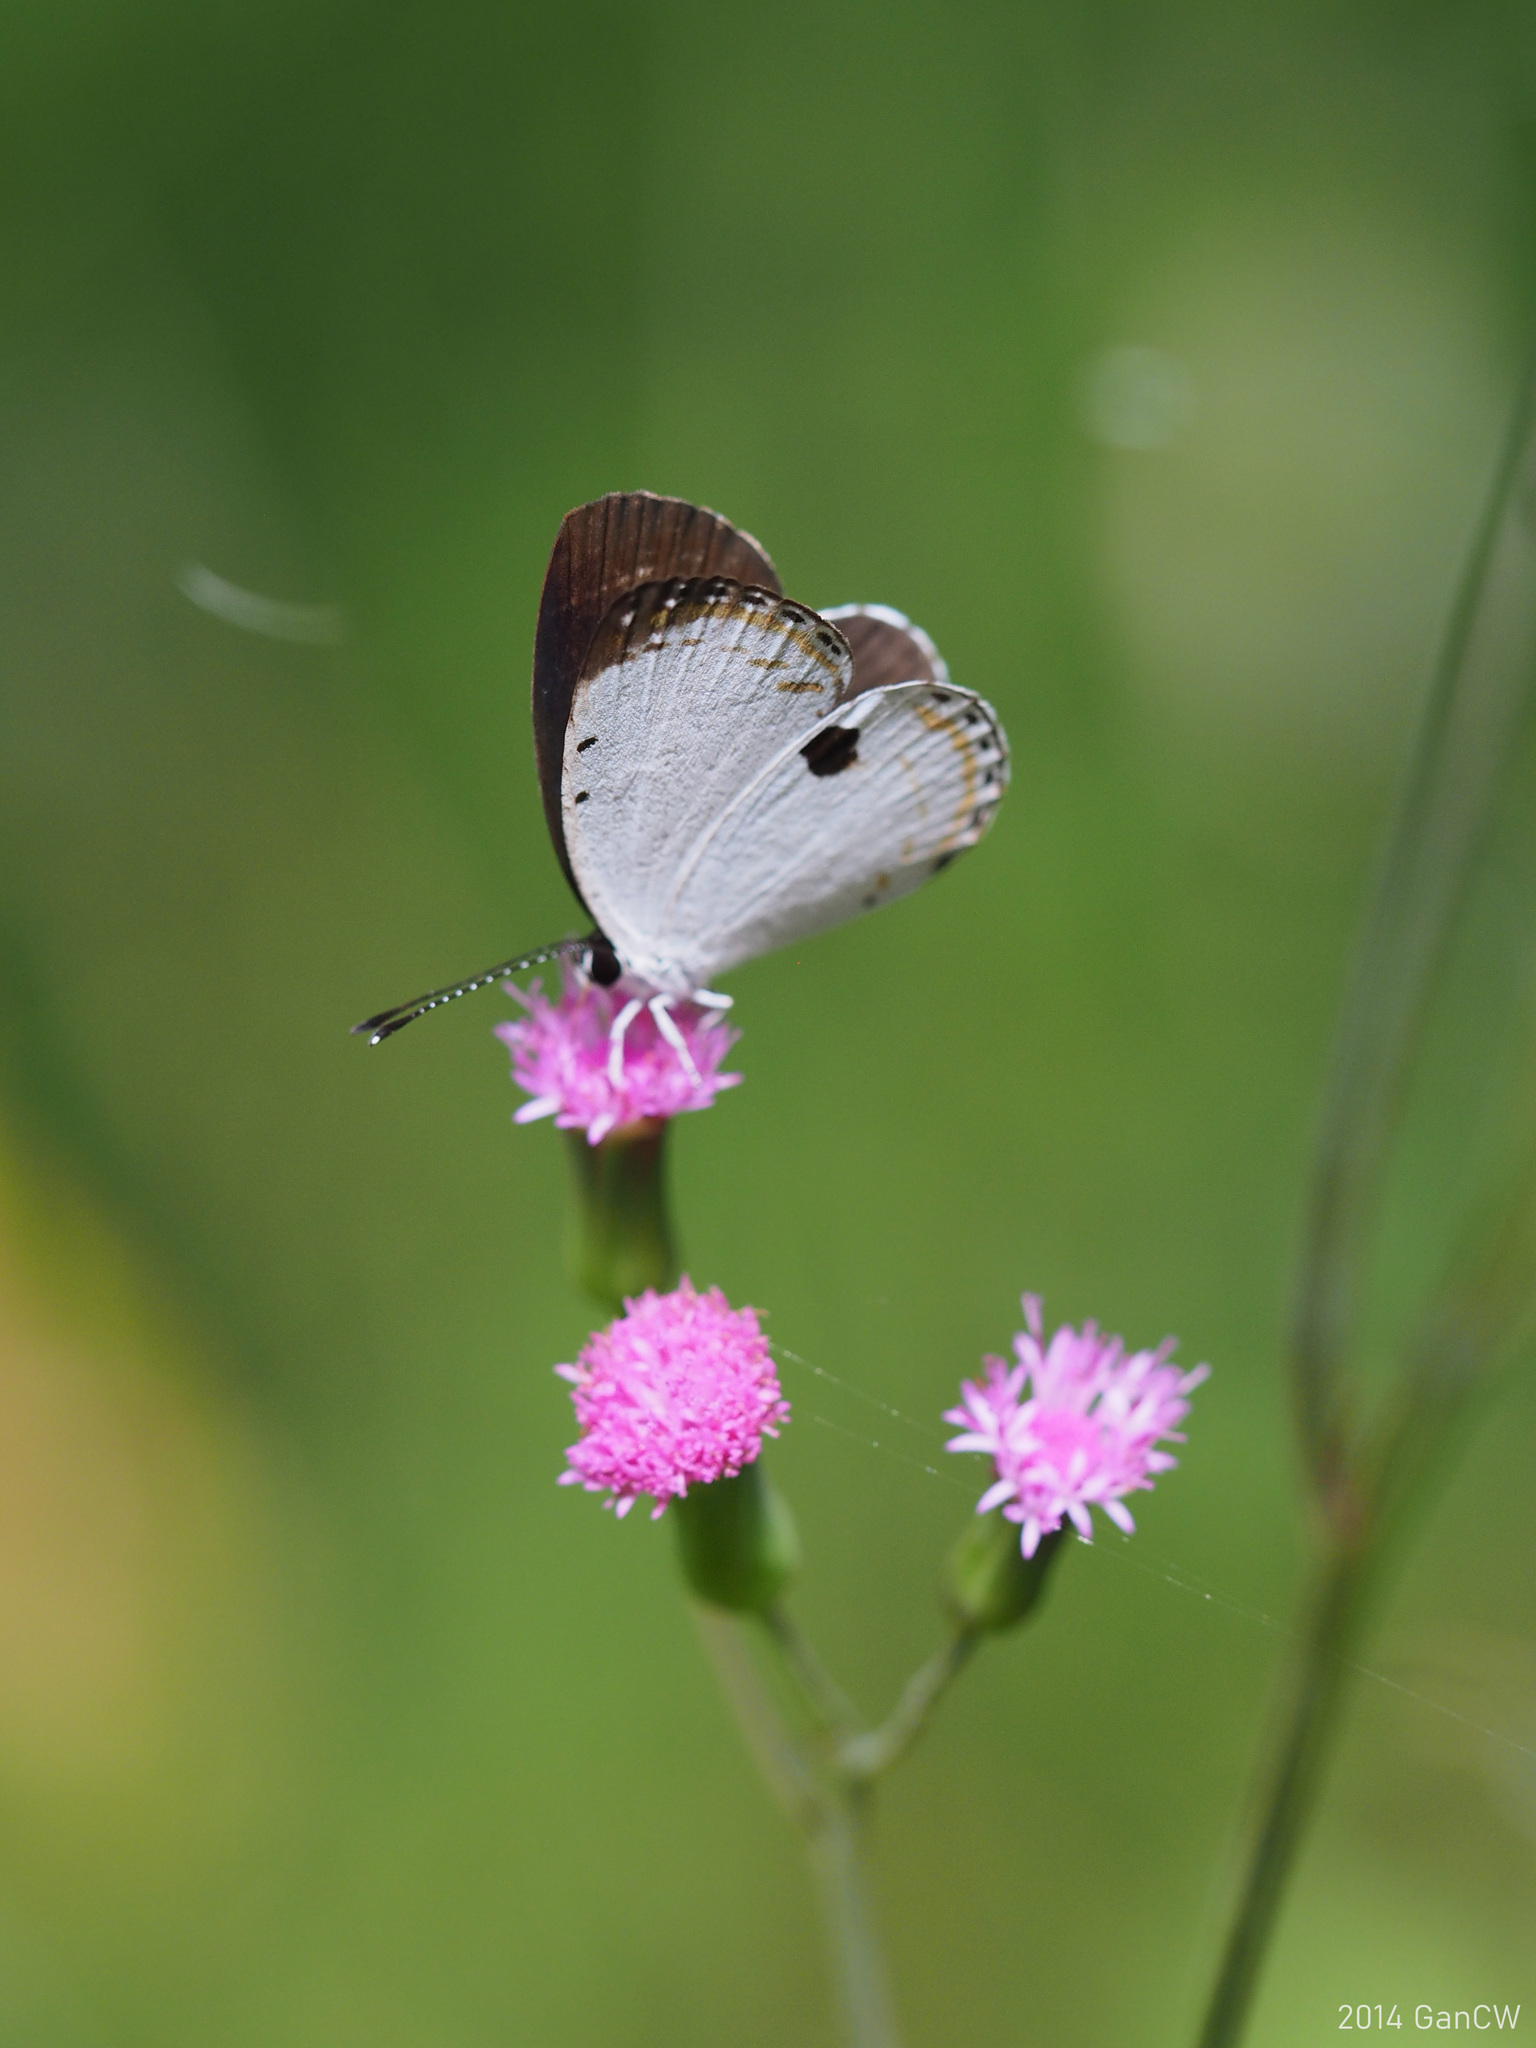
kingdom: Animalia
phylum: Arthropoda
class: Insecta
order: Lepidoptera
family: Lycaenidae
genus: Pithecops
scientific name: Pithecops corvus
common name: Forest quaker
